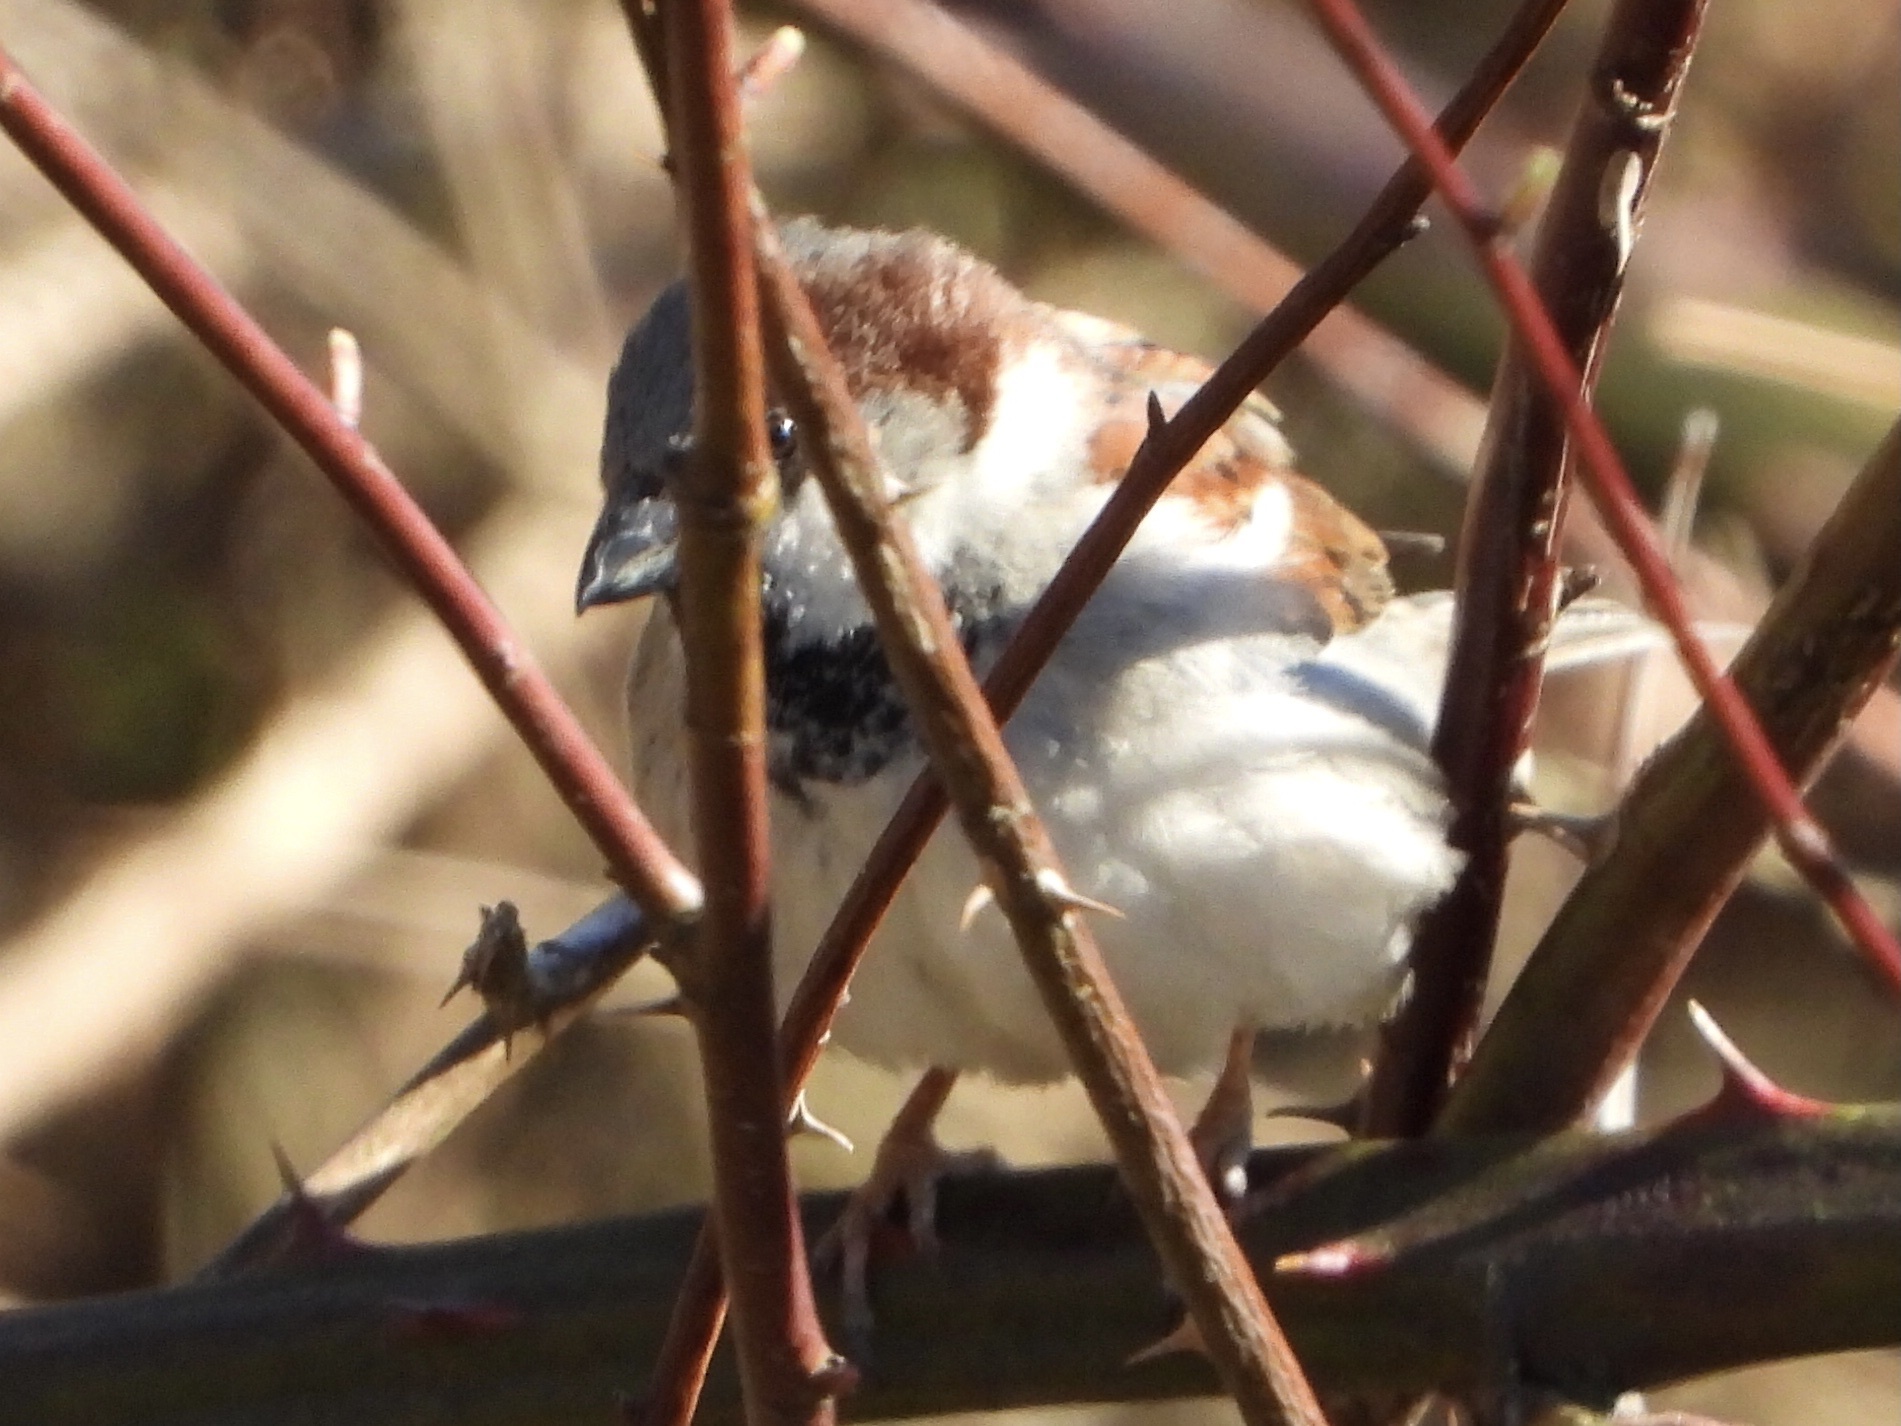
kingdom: Animalia
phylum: Chordata
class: Aves
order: Passeriformes
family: Passeridae
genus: Passer
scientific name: Passer domesticus
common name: House sparrow
